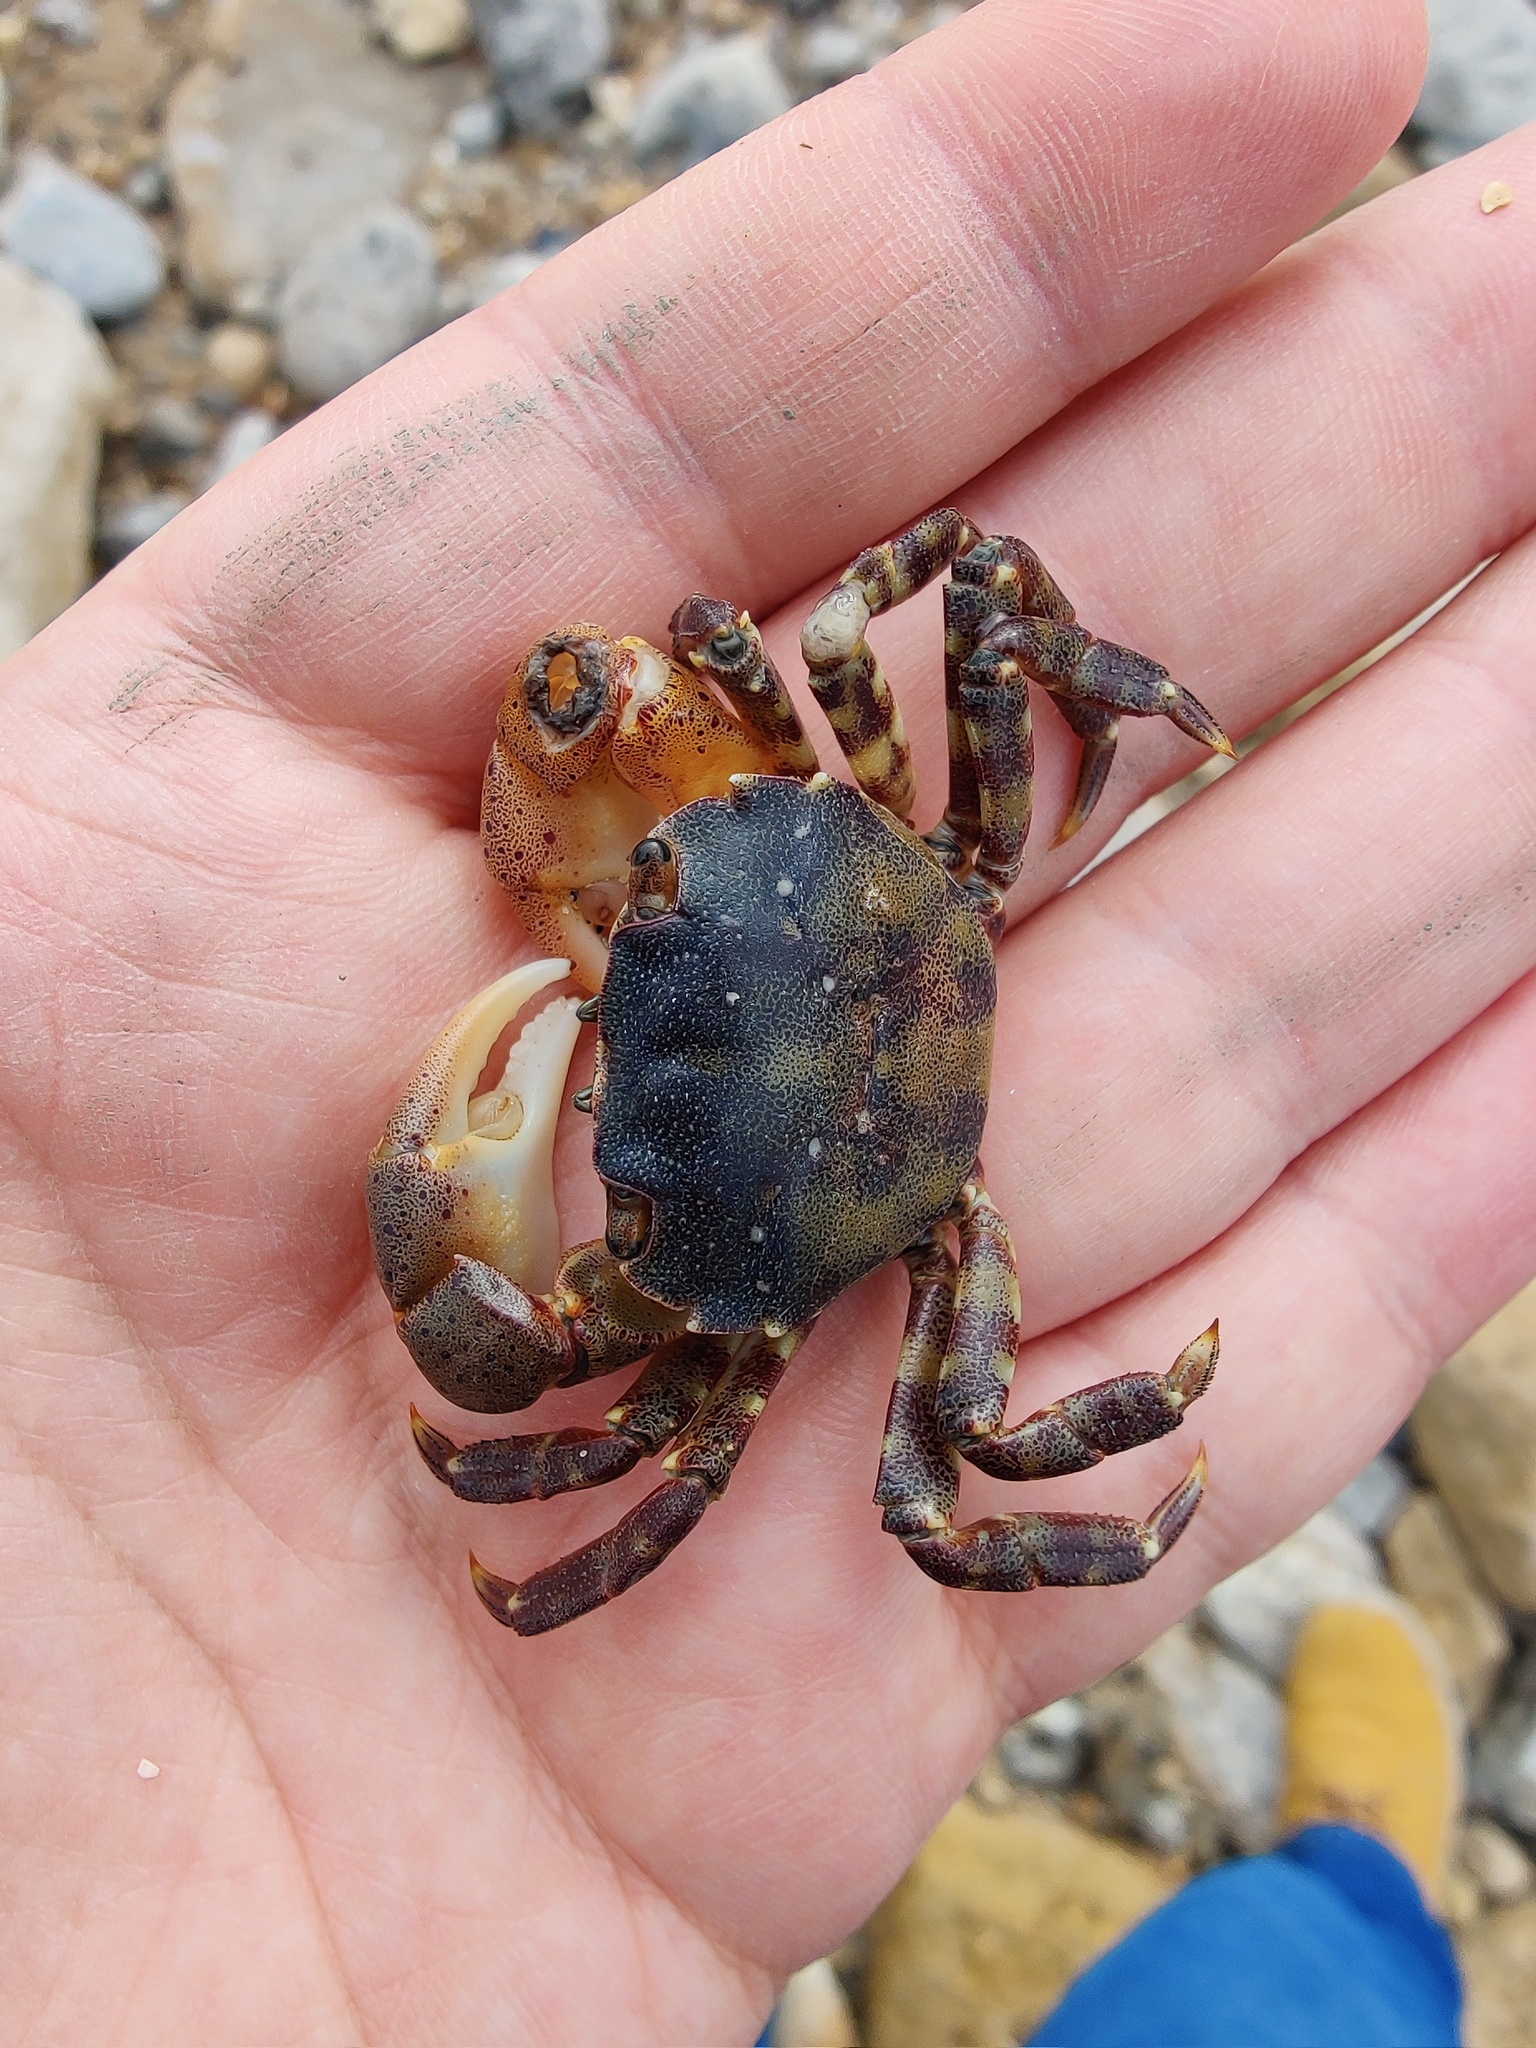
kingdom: Animalia
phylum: Arthropoda
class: Malacostraca
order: Decapoda
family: Varunidae
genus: Hemigrapsus
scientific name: Hemigrapsus sanguineus
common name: Asian shore crab
